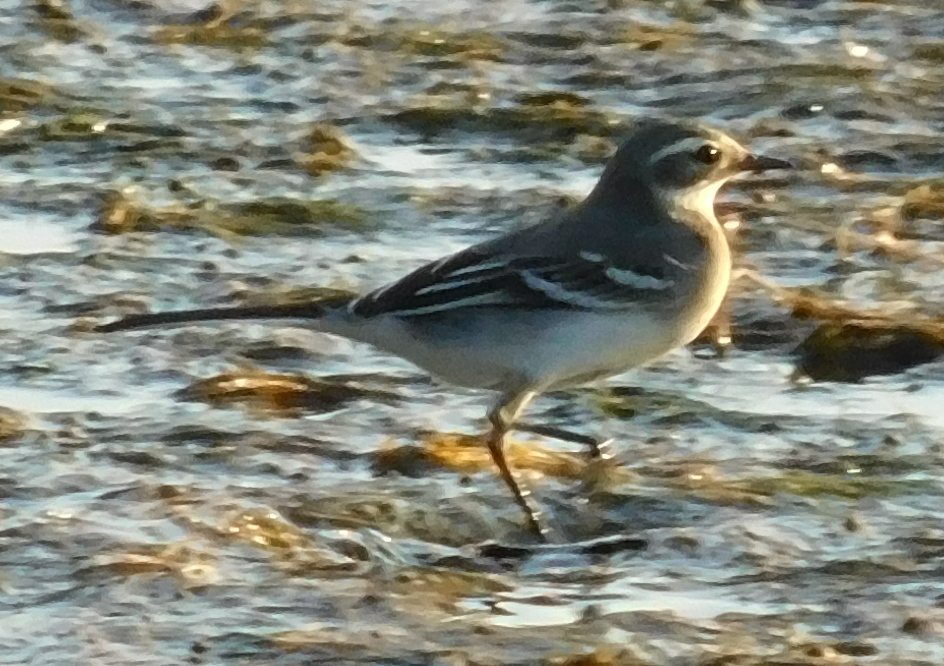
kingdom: Animalia
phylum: Chordata
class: Aves
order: Passeriformes
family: Motacillidae
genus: Motacilla
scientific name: Motacilla citreola
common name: Citrine wagtail
